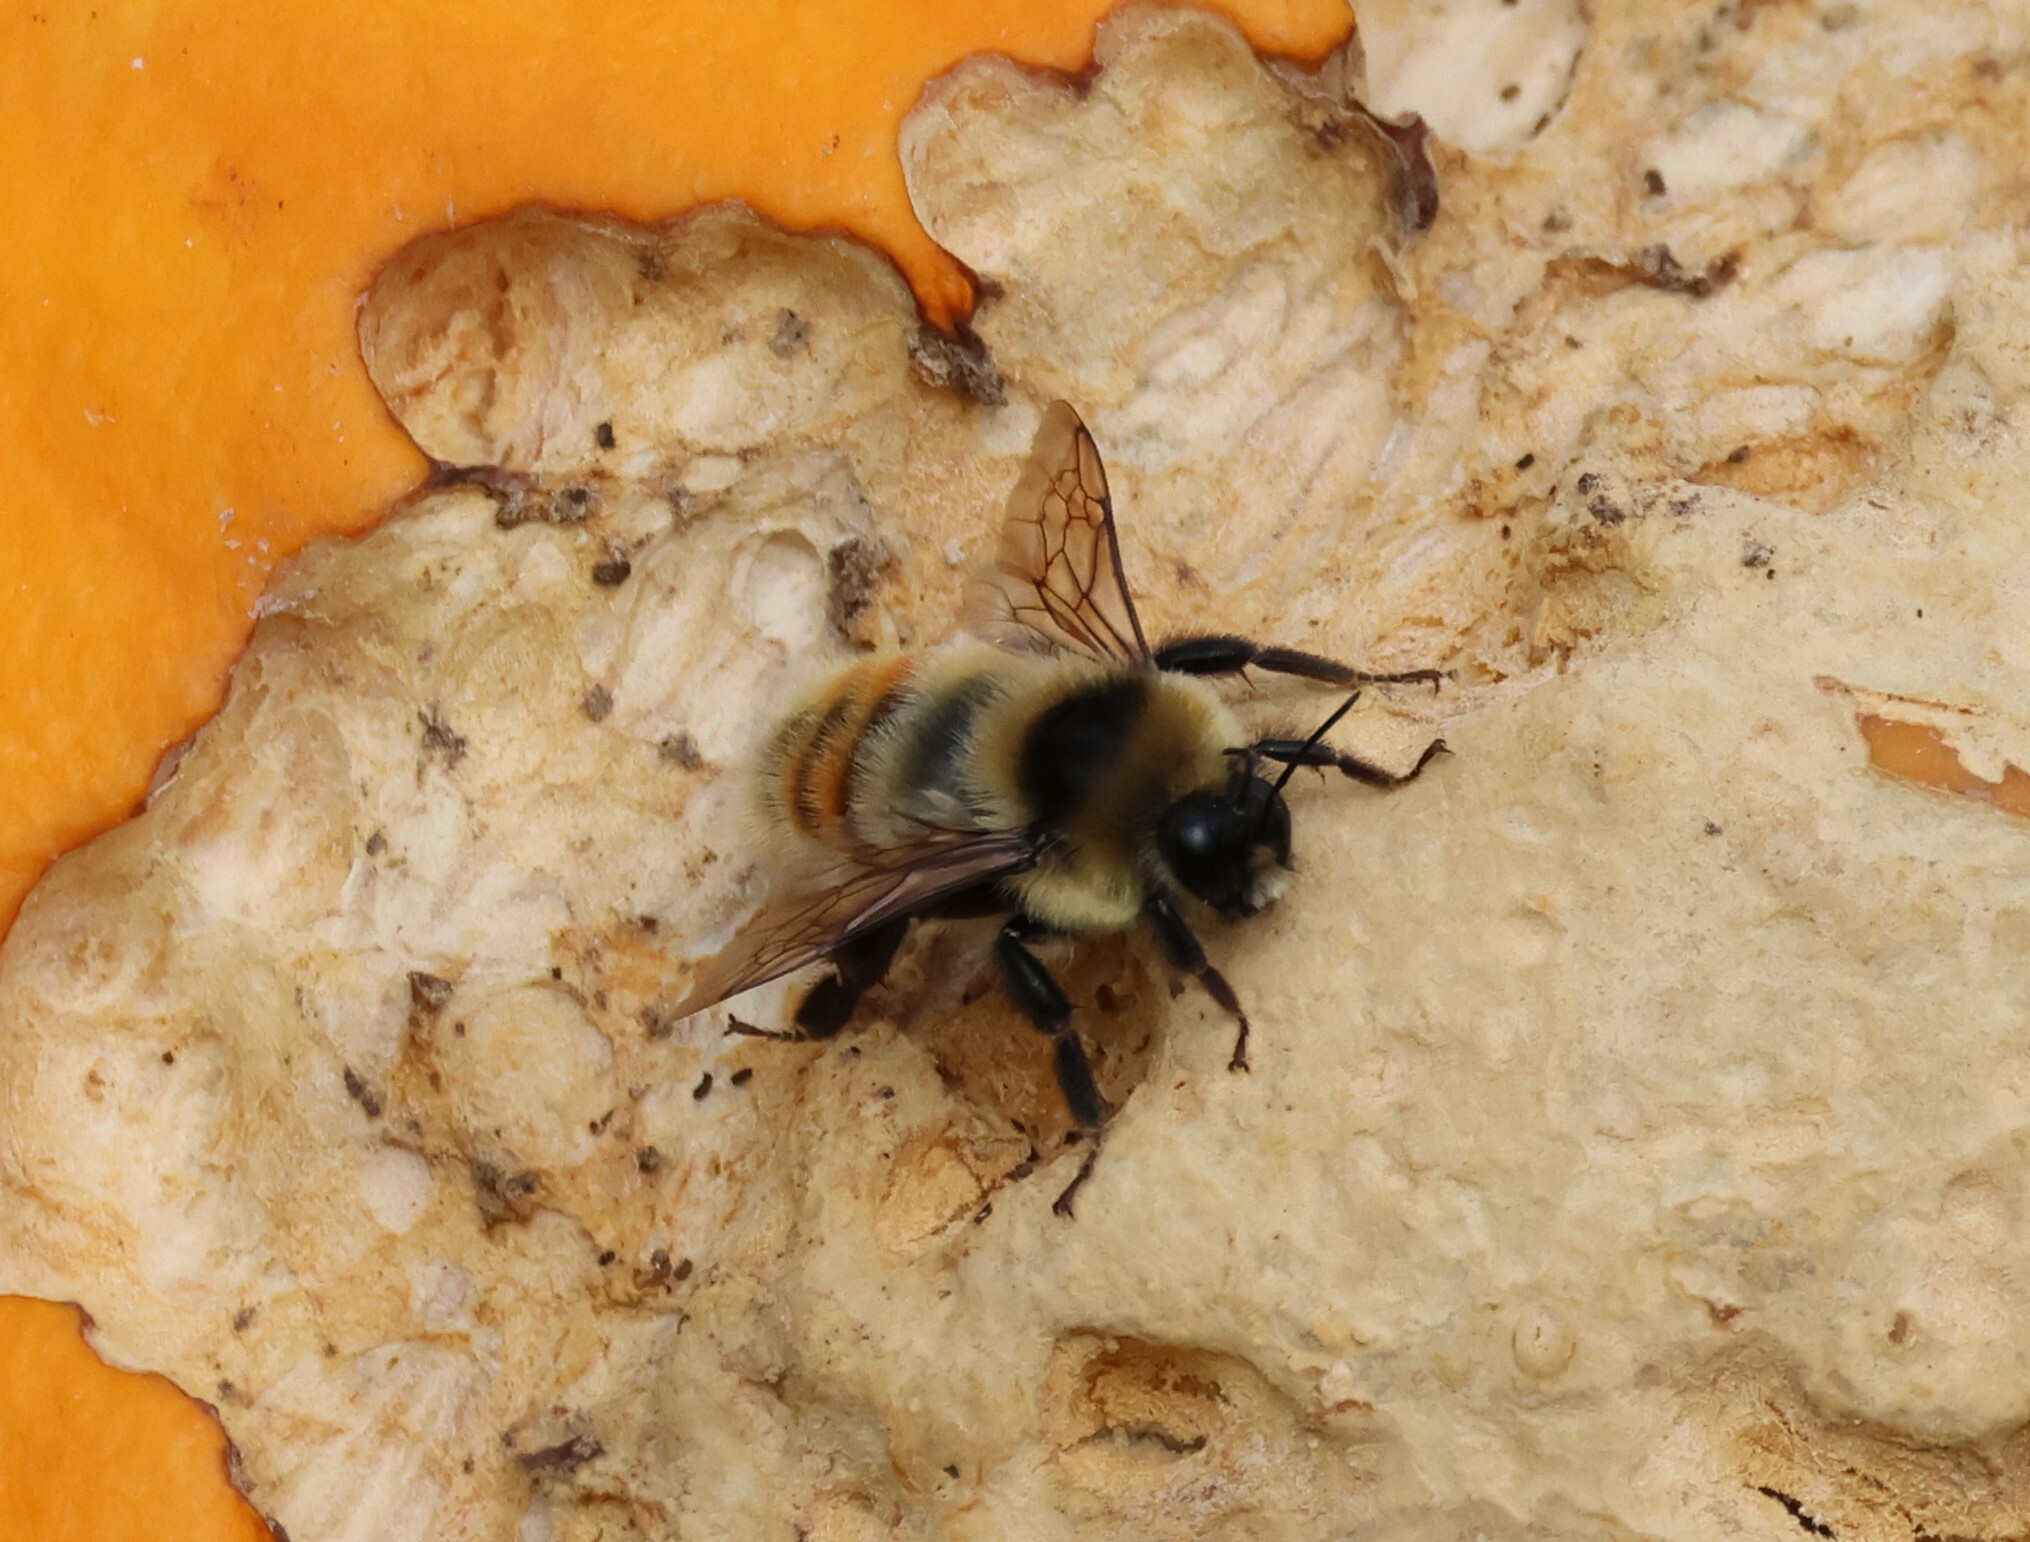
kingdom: Animalia
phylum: Arthropoda
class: Insecta
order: Hymenoptera
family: Apidae
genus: Bombus
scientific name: Bombus rufocinctus
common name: Red-belted bumble bee
